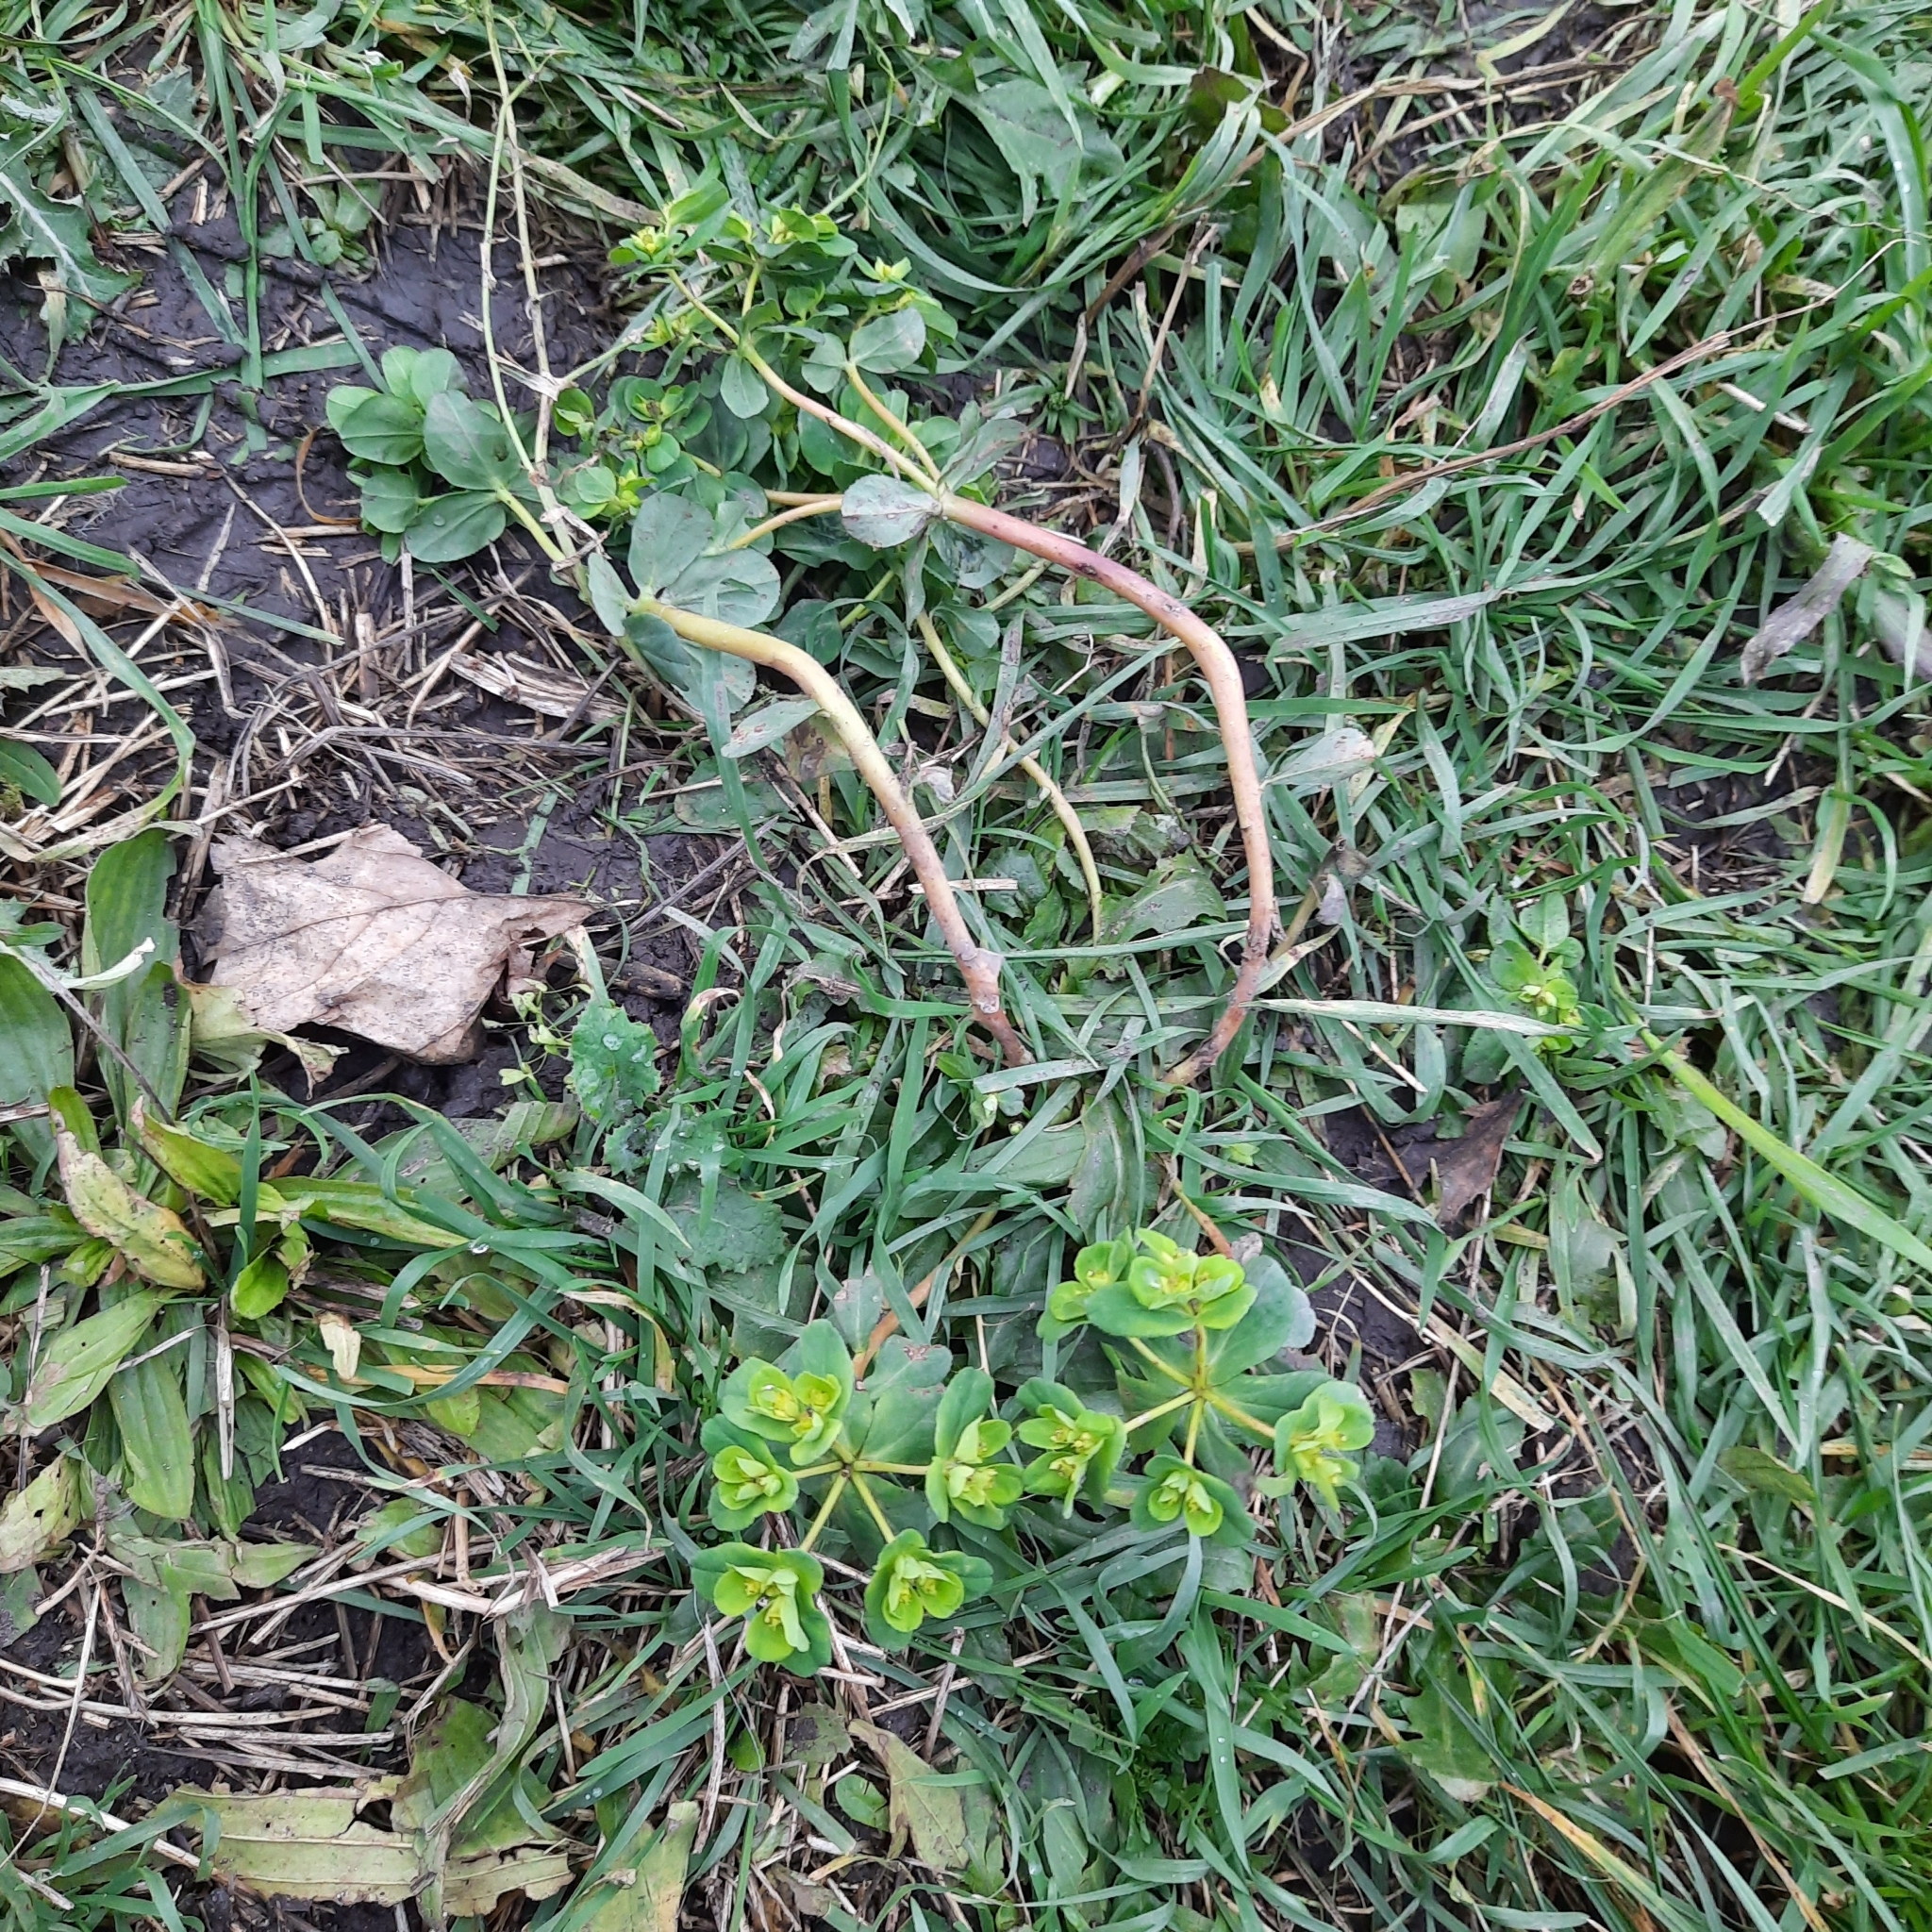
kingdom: Plantae
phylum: Tracheophyta
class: Magnoliopsida
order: Malpighiales
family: Euphorbiaceae
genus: Euphorbia
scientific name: Euphorbia helioscopia
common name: Sun spurge
